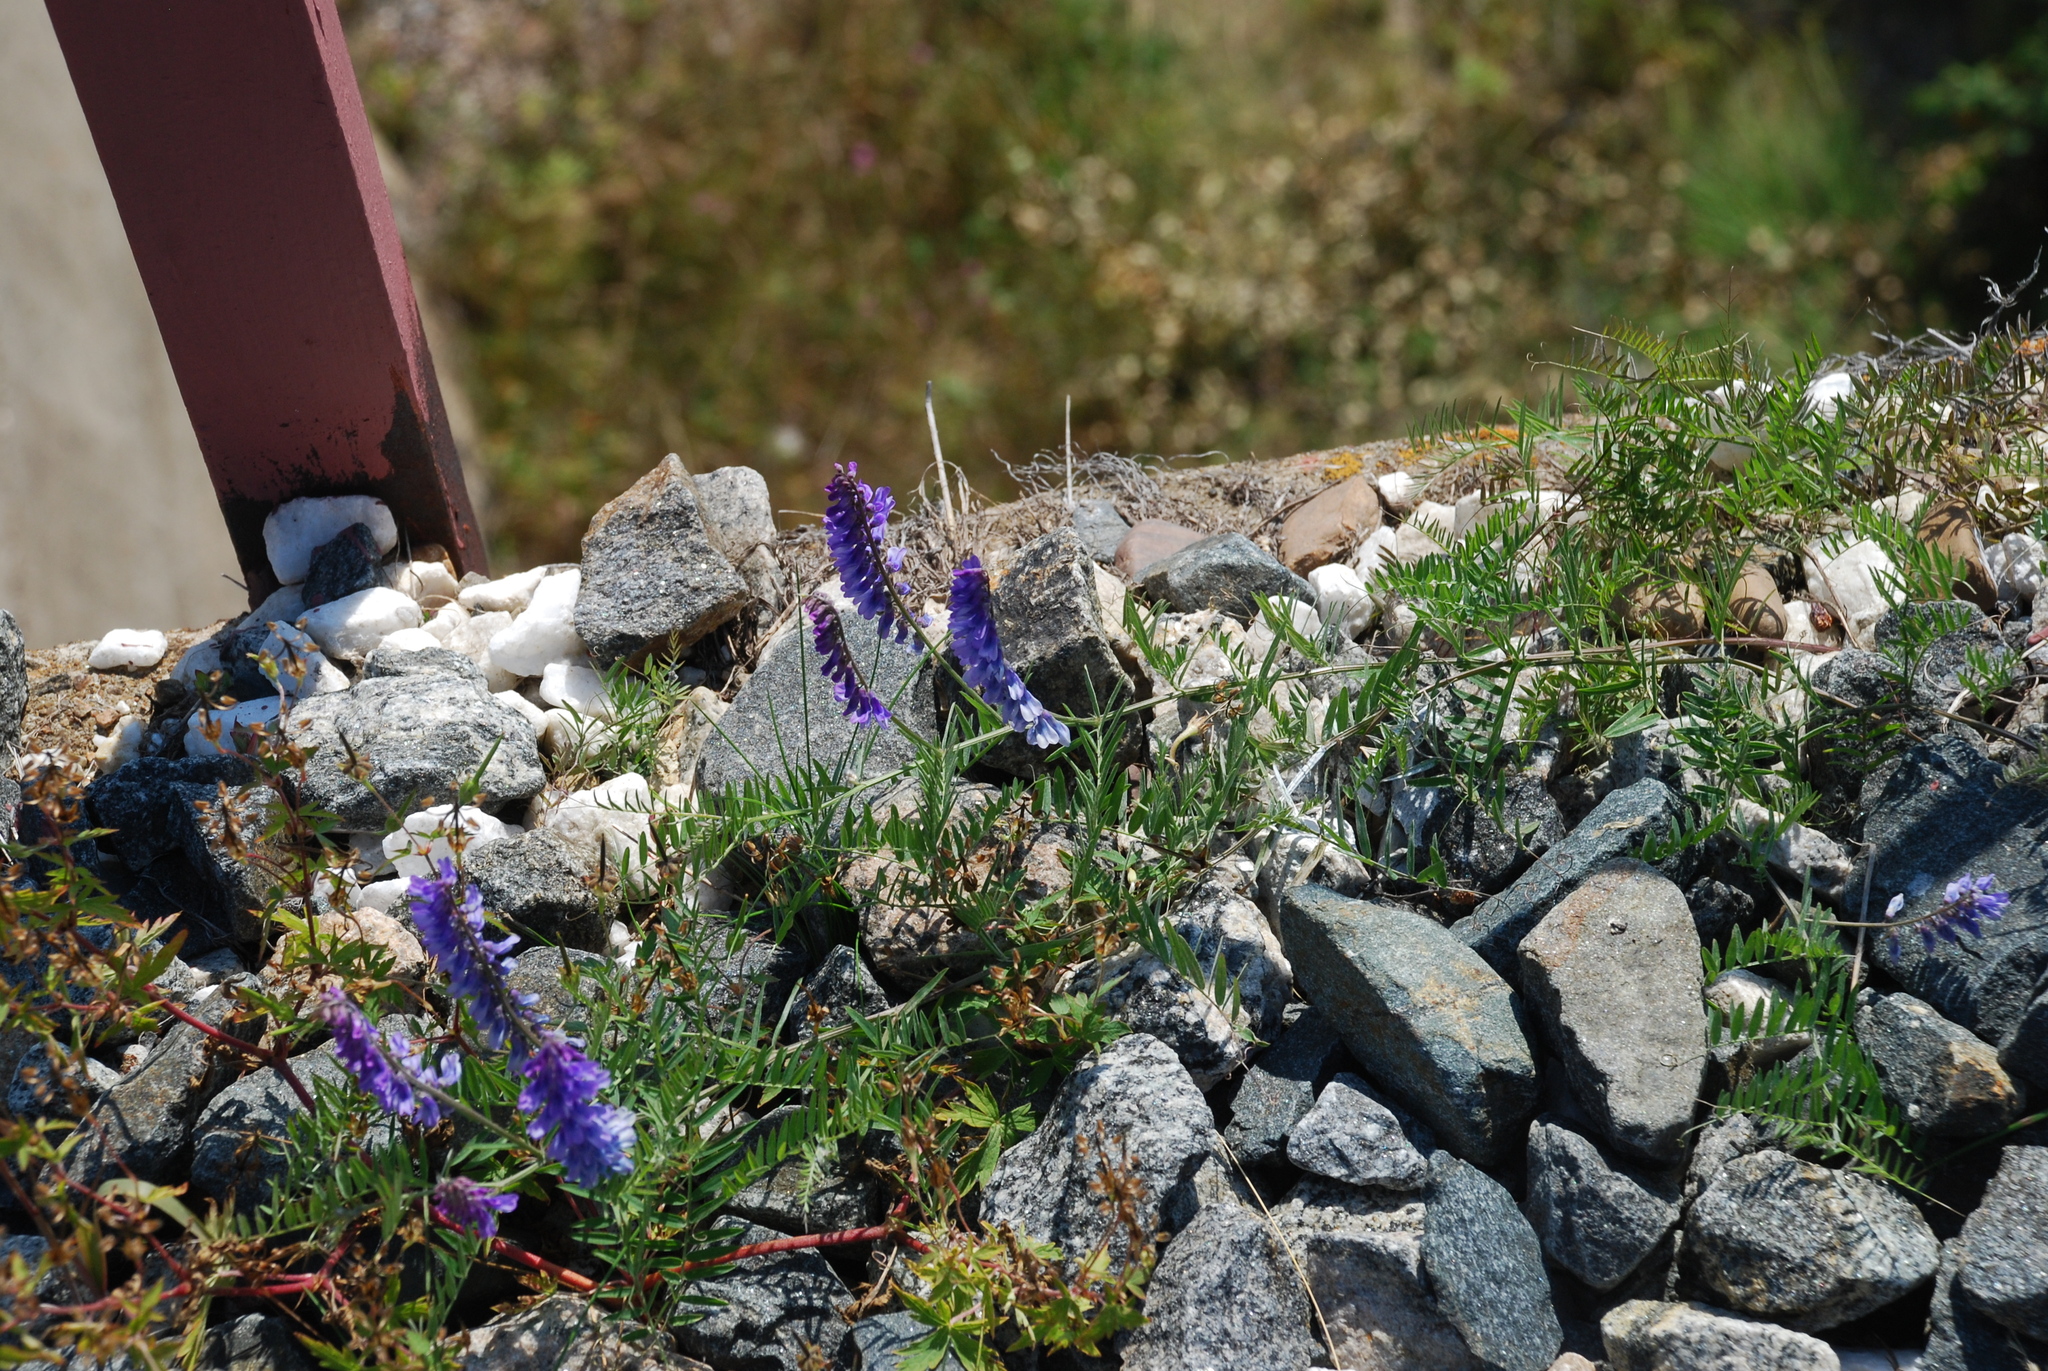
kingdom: Plantae
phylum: Tracheophyta
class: Magnoliopsida
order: Fabales
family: Fabaceae
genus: Vicia
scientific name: Vicia cracca
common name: Bird vetch
